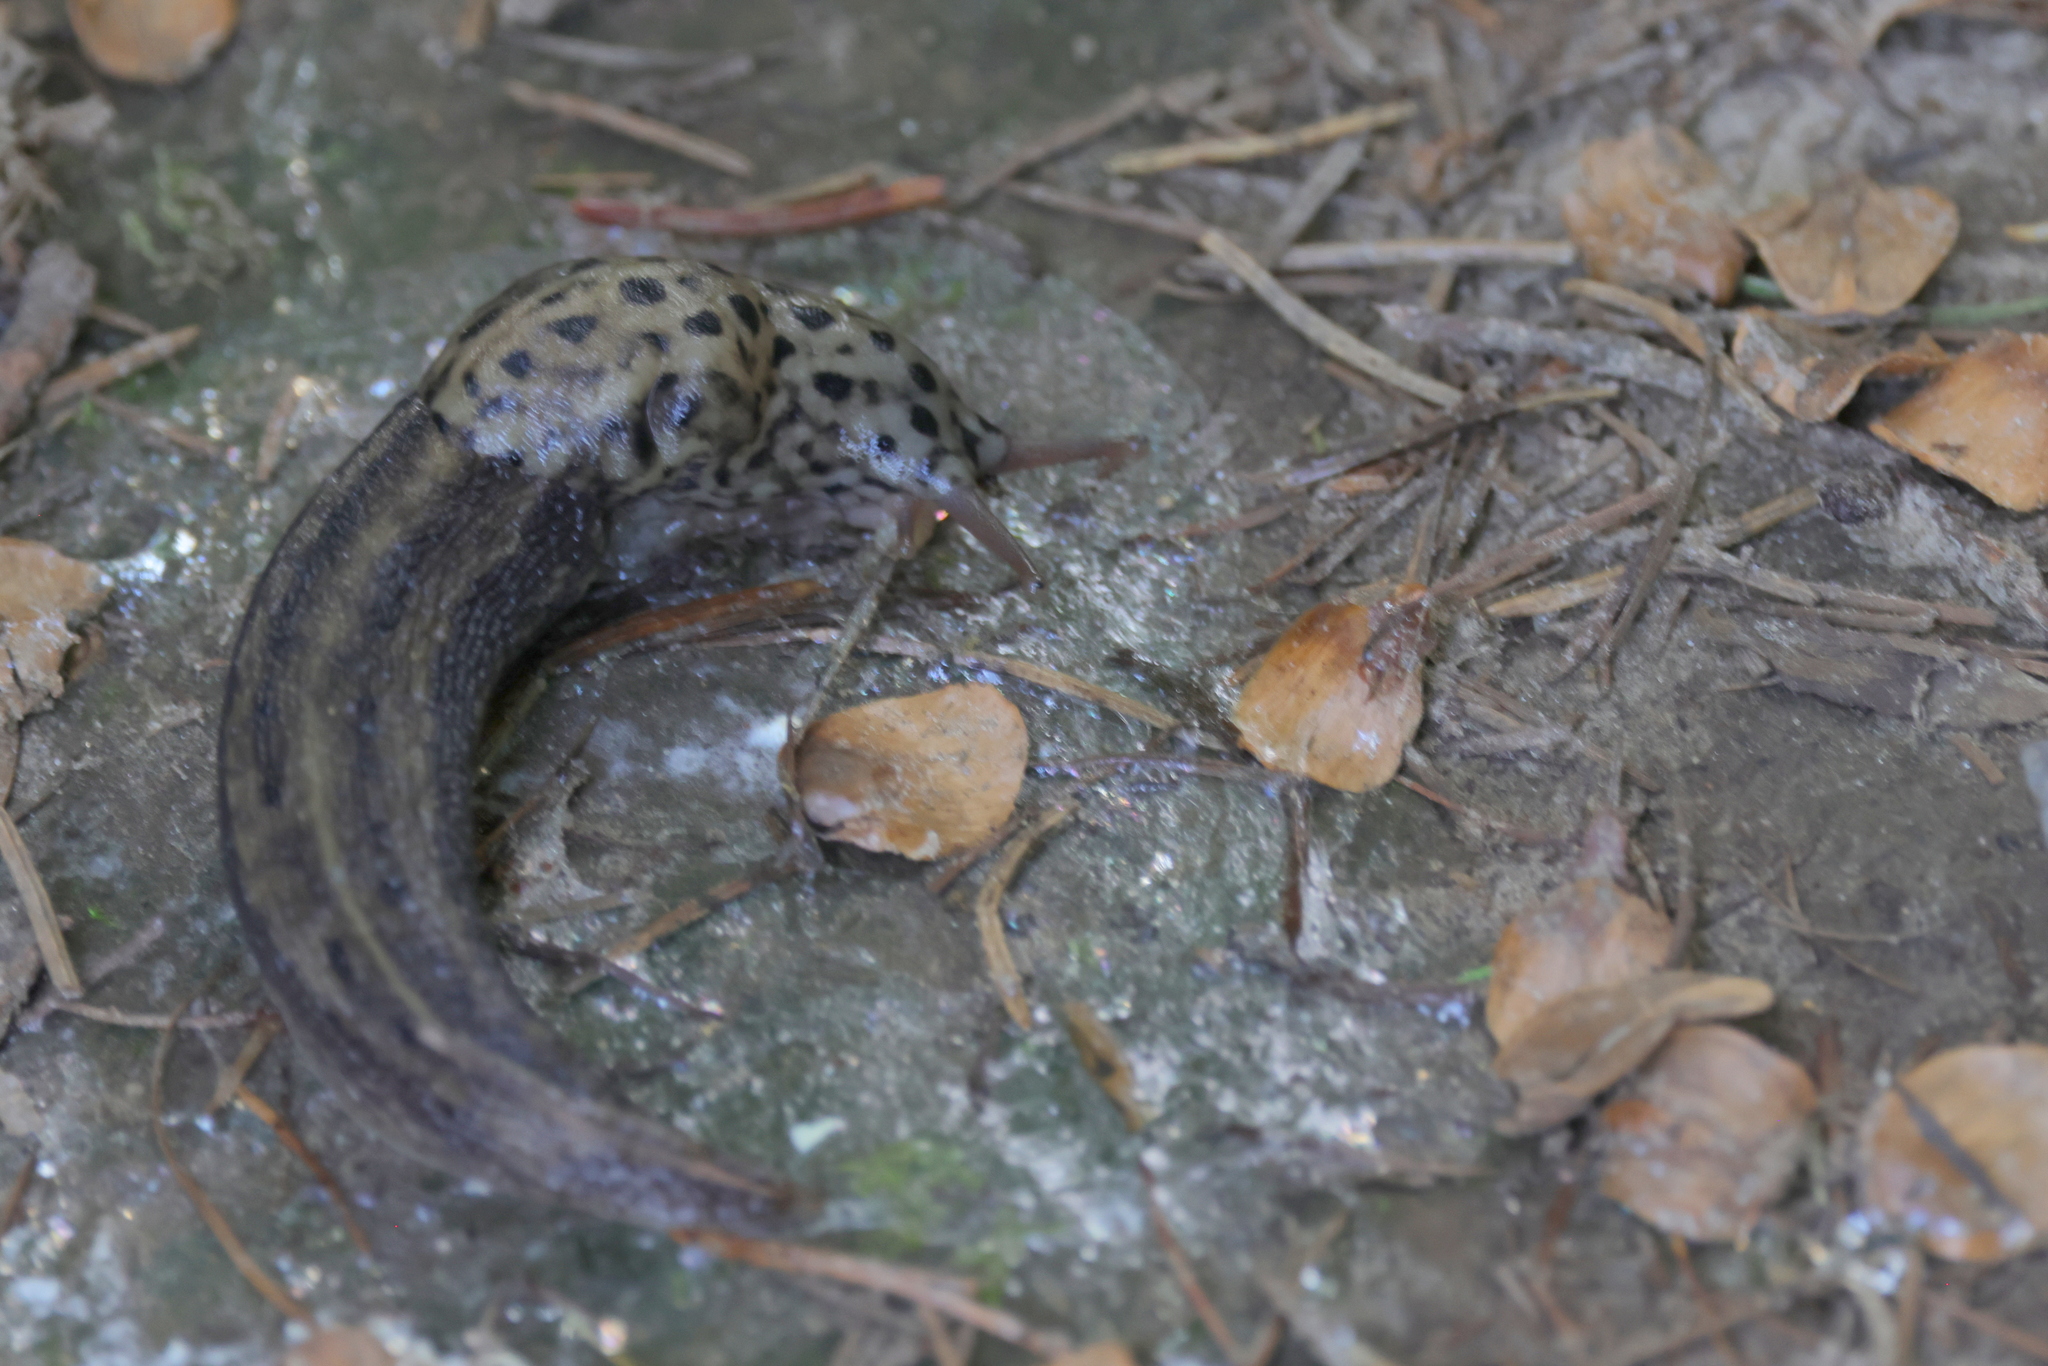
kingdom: Animalia
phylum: Mollusca
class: Gastropoda
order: Stylommatophora
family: Limacidae
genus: Limax
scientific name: Limax maximus
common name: Great grey slug
